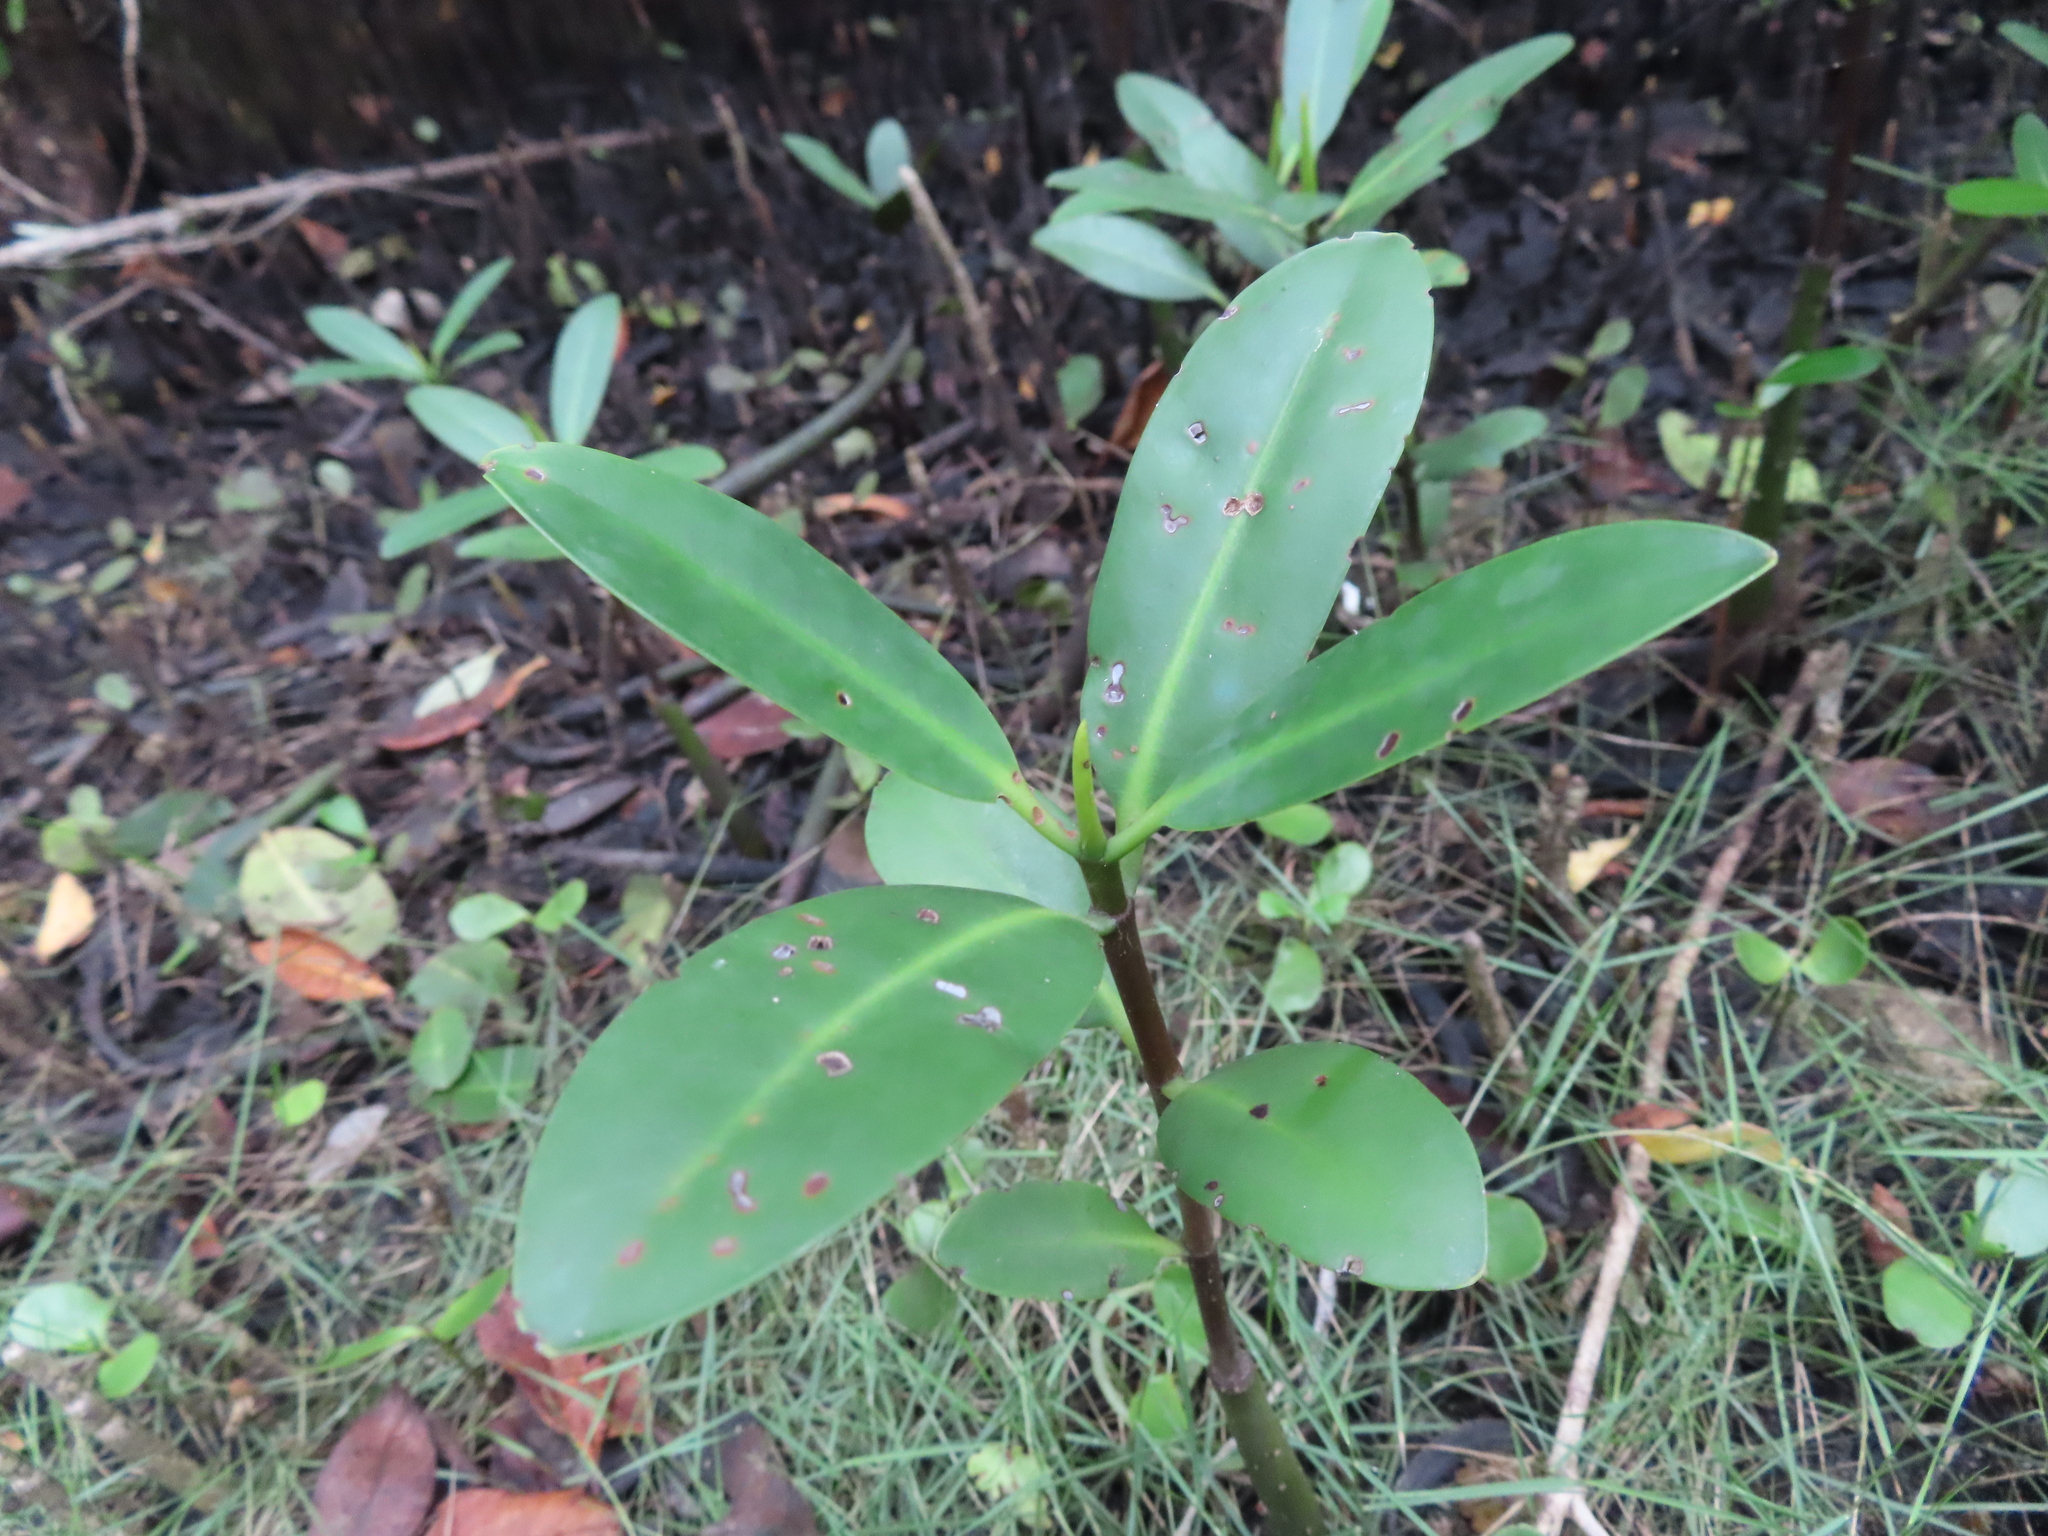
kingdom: Plantae
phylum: Tracheophyta
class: Magnoliopsida
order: Malpighiales
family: Rhizophoraceae
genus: Rhizophora
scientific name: Rhizophora mangle
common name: Red mangrove
